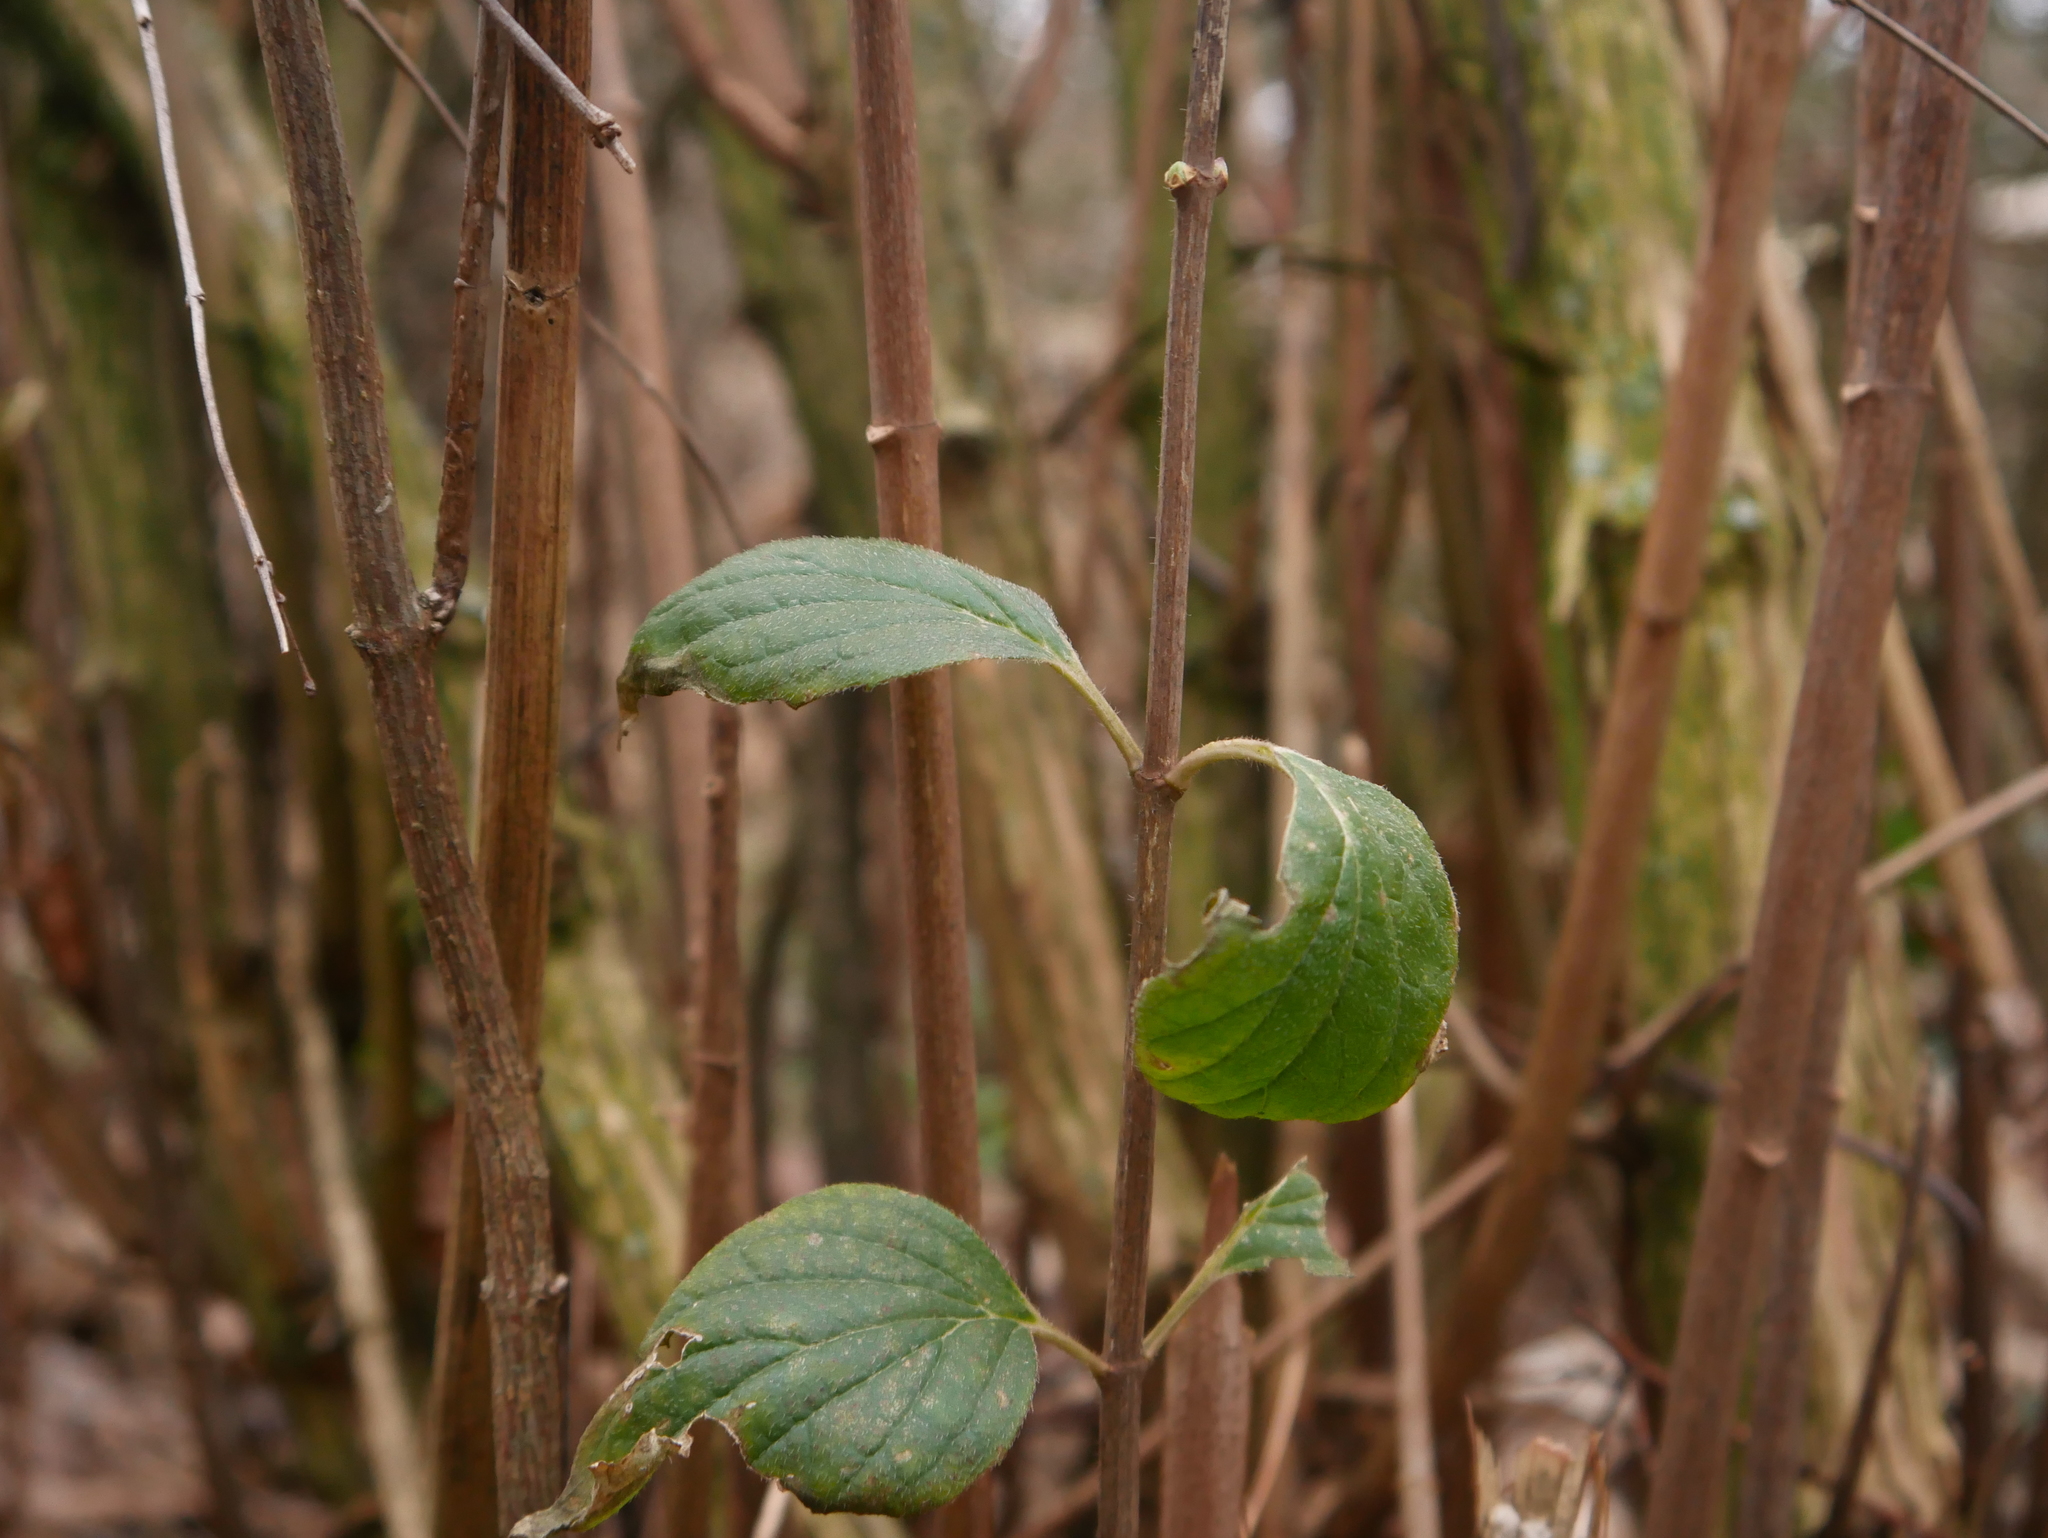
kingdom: Plantae
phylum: Tracheophyta
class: Magnoliopsida
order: Cornales
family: Cornaceae
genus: Cornus
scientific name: Cornus sanguinea
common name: Dogwood
